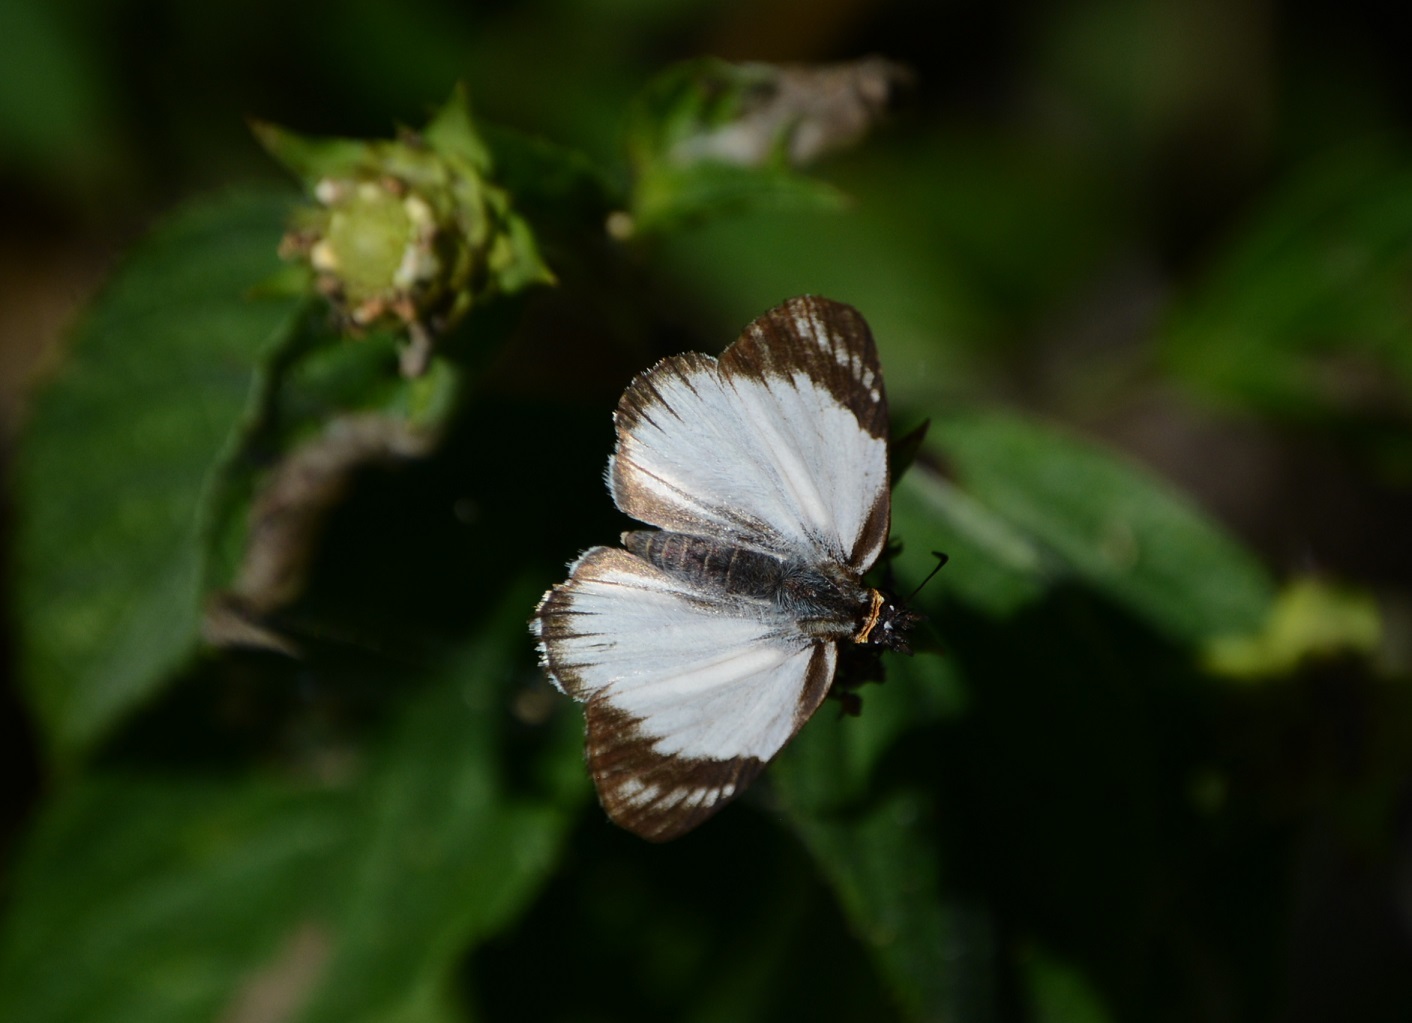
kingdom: Animalia
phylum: Arthropoda
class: Insecta
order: Lepidoptera
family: Hesperiidae
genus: Heliopetes
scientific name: Heliopetes alana
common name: Alana white-skipper
